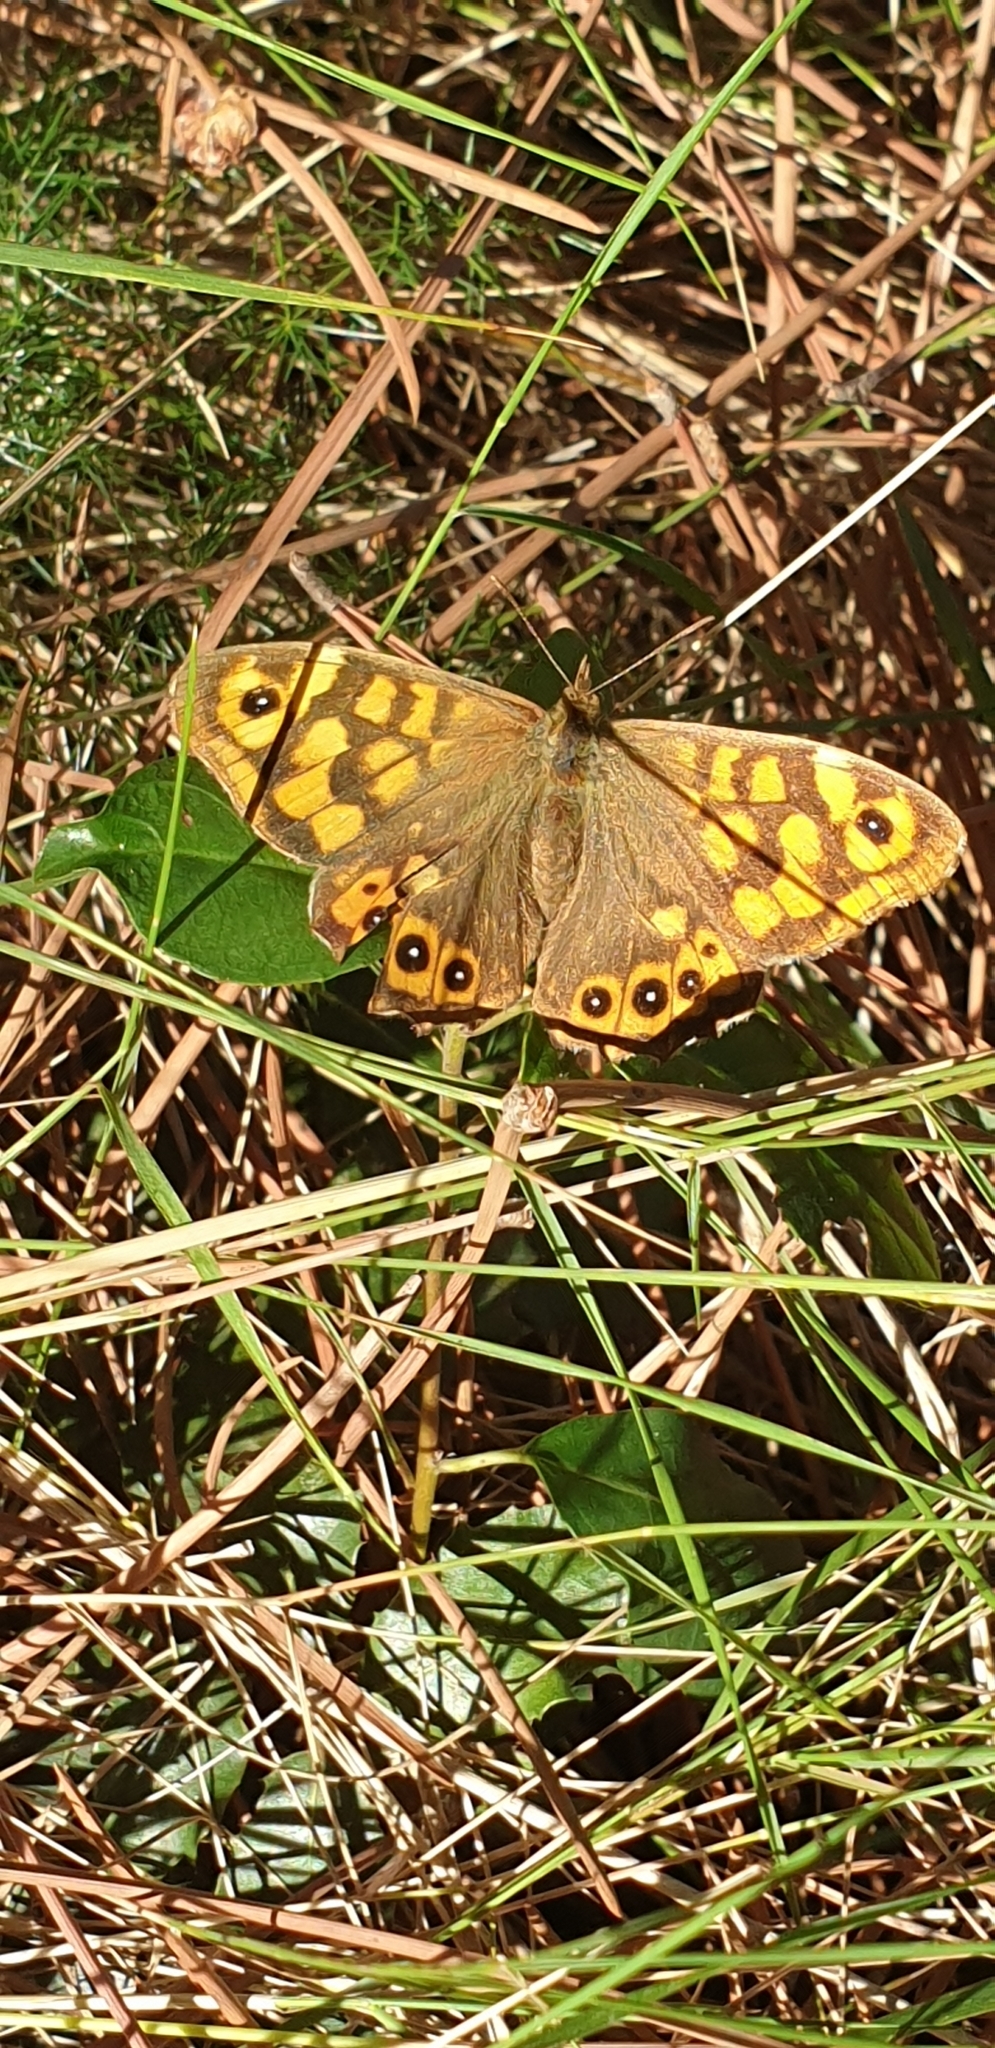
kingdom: Animalia
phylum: Arthropoda
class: Insecta
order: Lepidoptera
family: Nymphalidae
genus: Pararge
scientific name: Pararge aegeria
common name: Speckled wood
